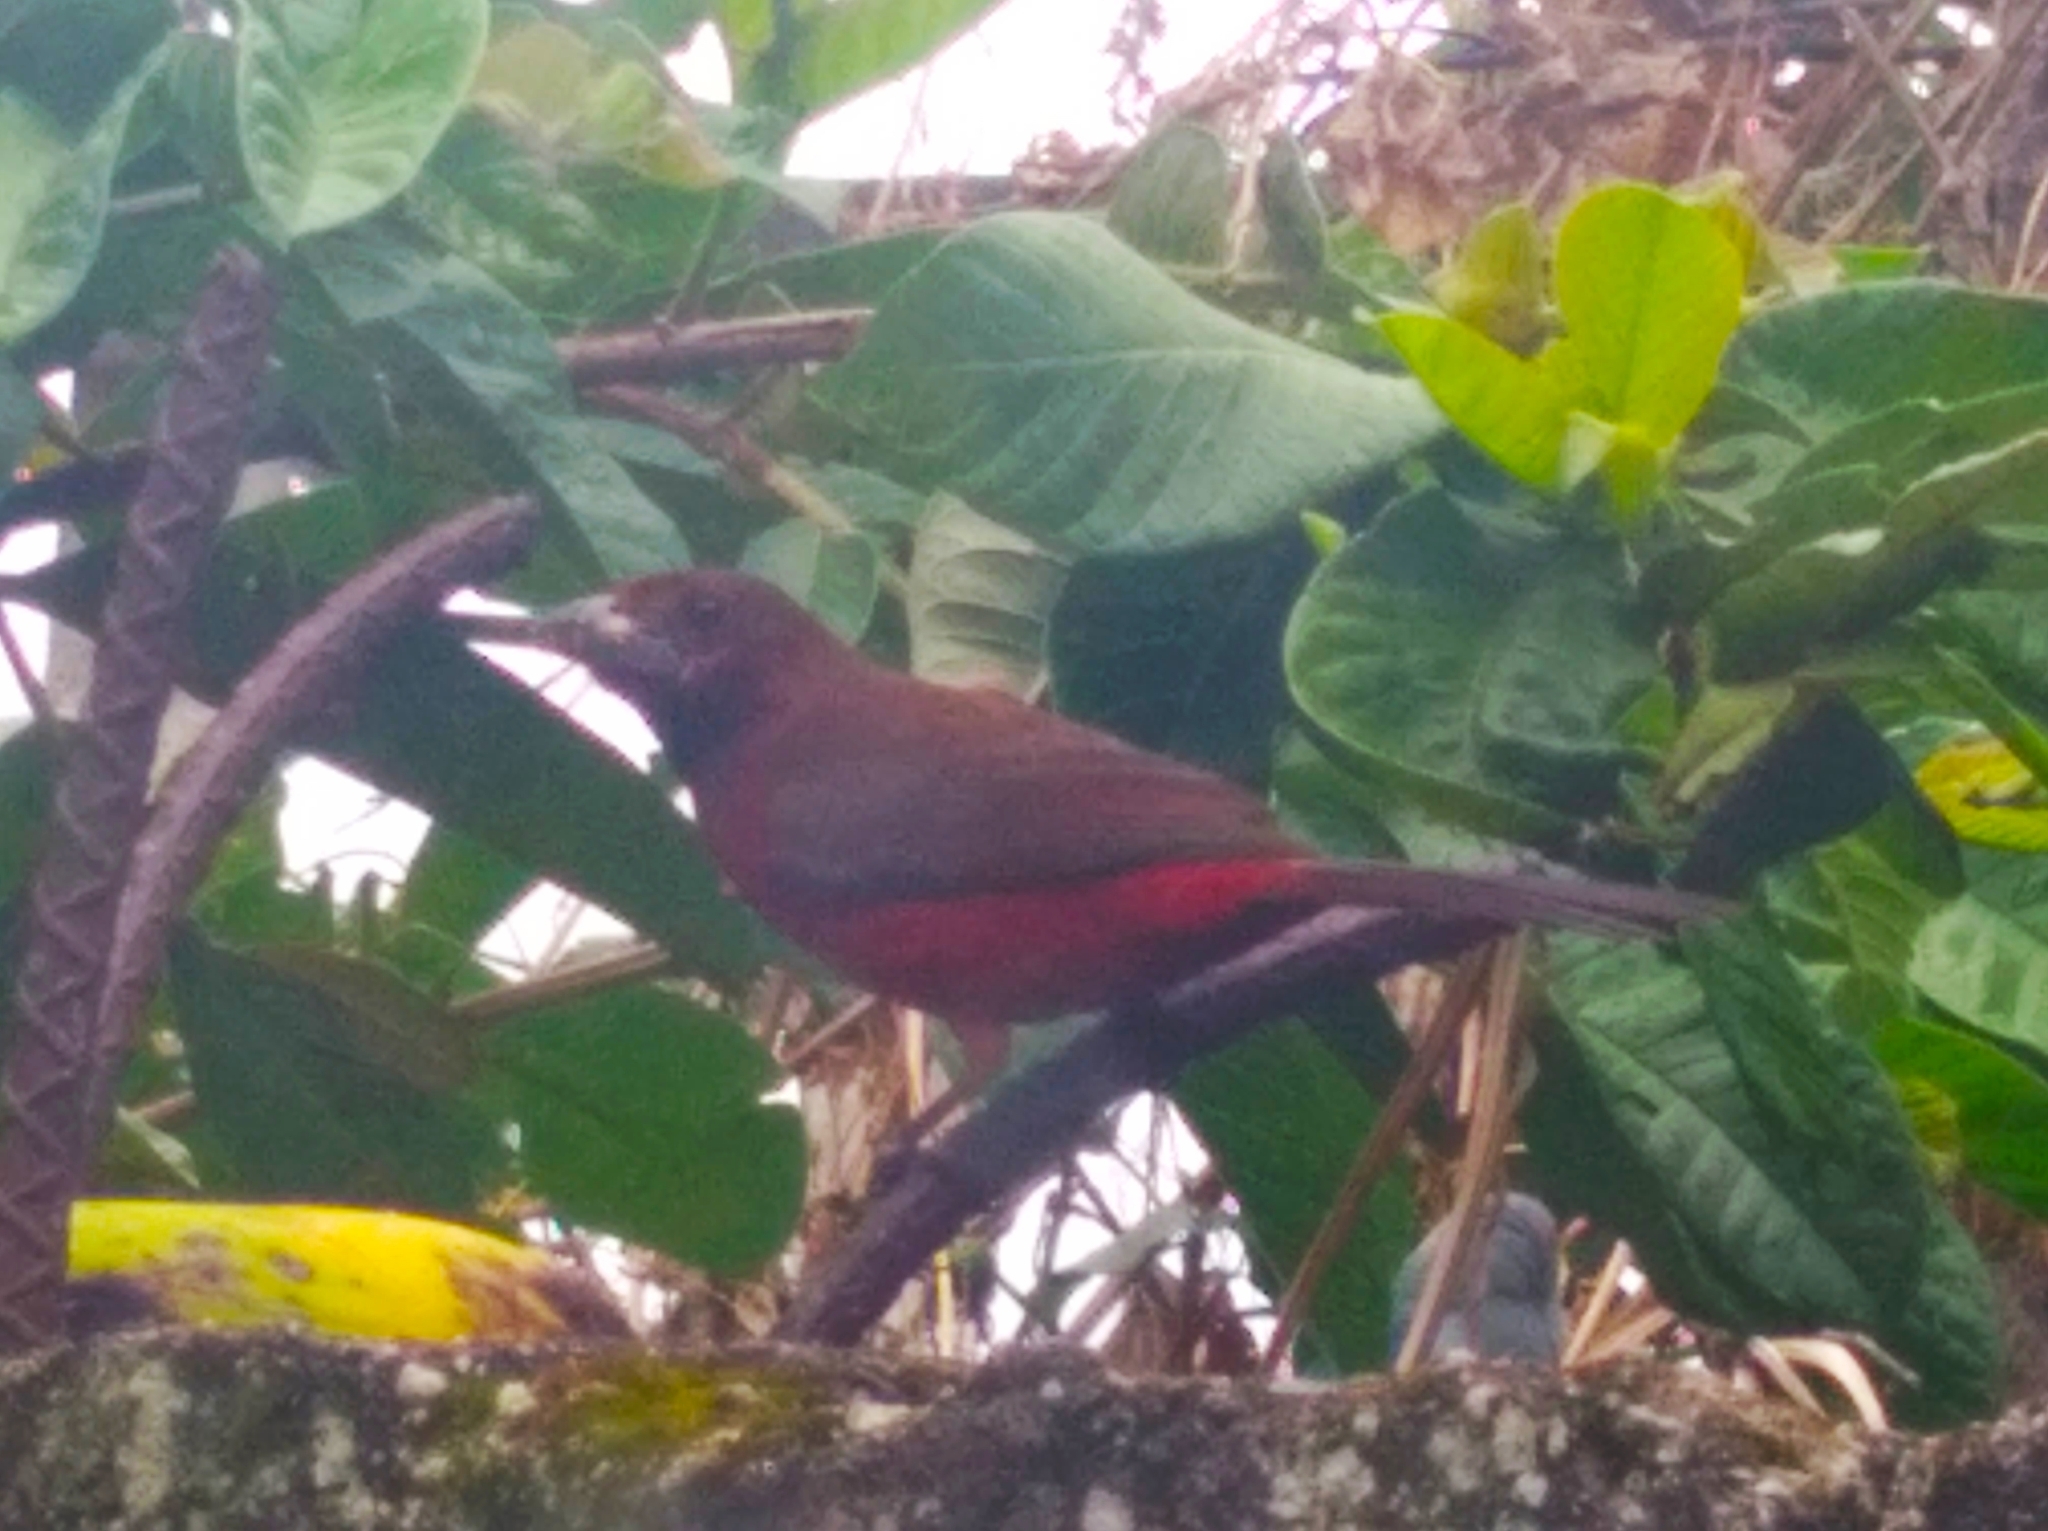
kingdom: Animalia
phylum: Chordata
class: Aves
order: Passeriformes
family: Thraupidae
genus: Ramphocelus
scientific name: Ramphocelus carbo
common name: Silver-beaked tanager
